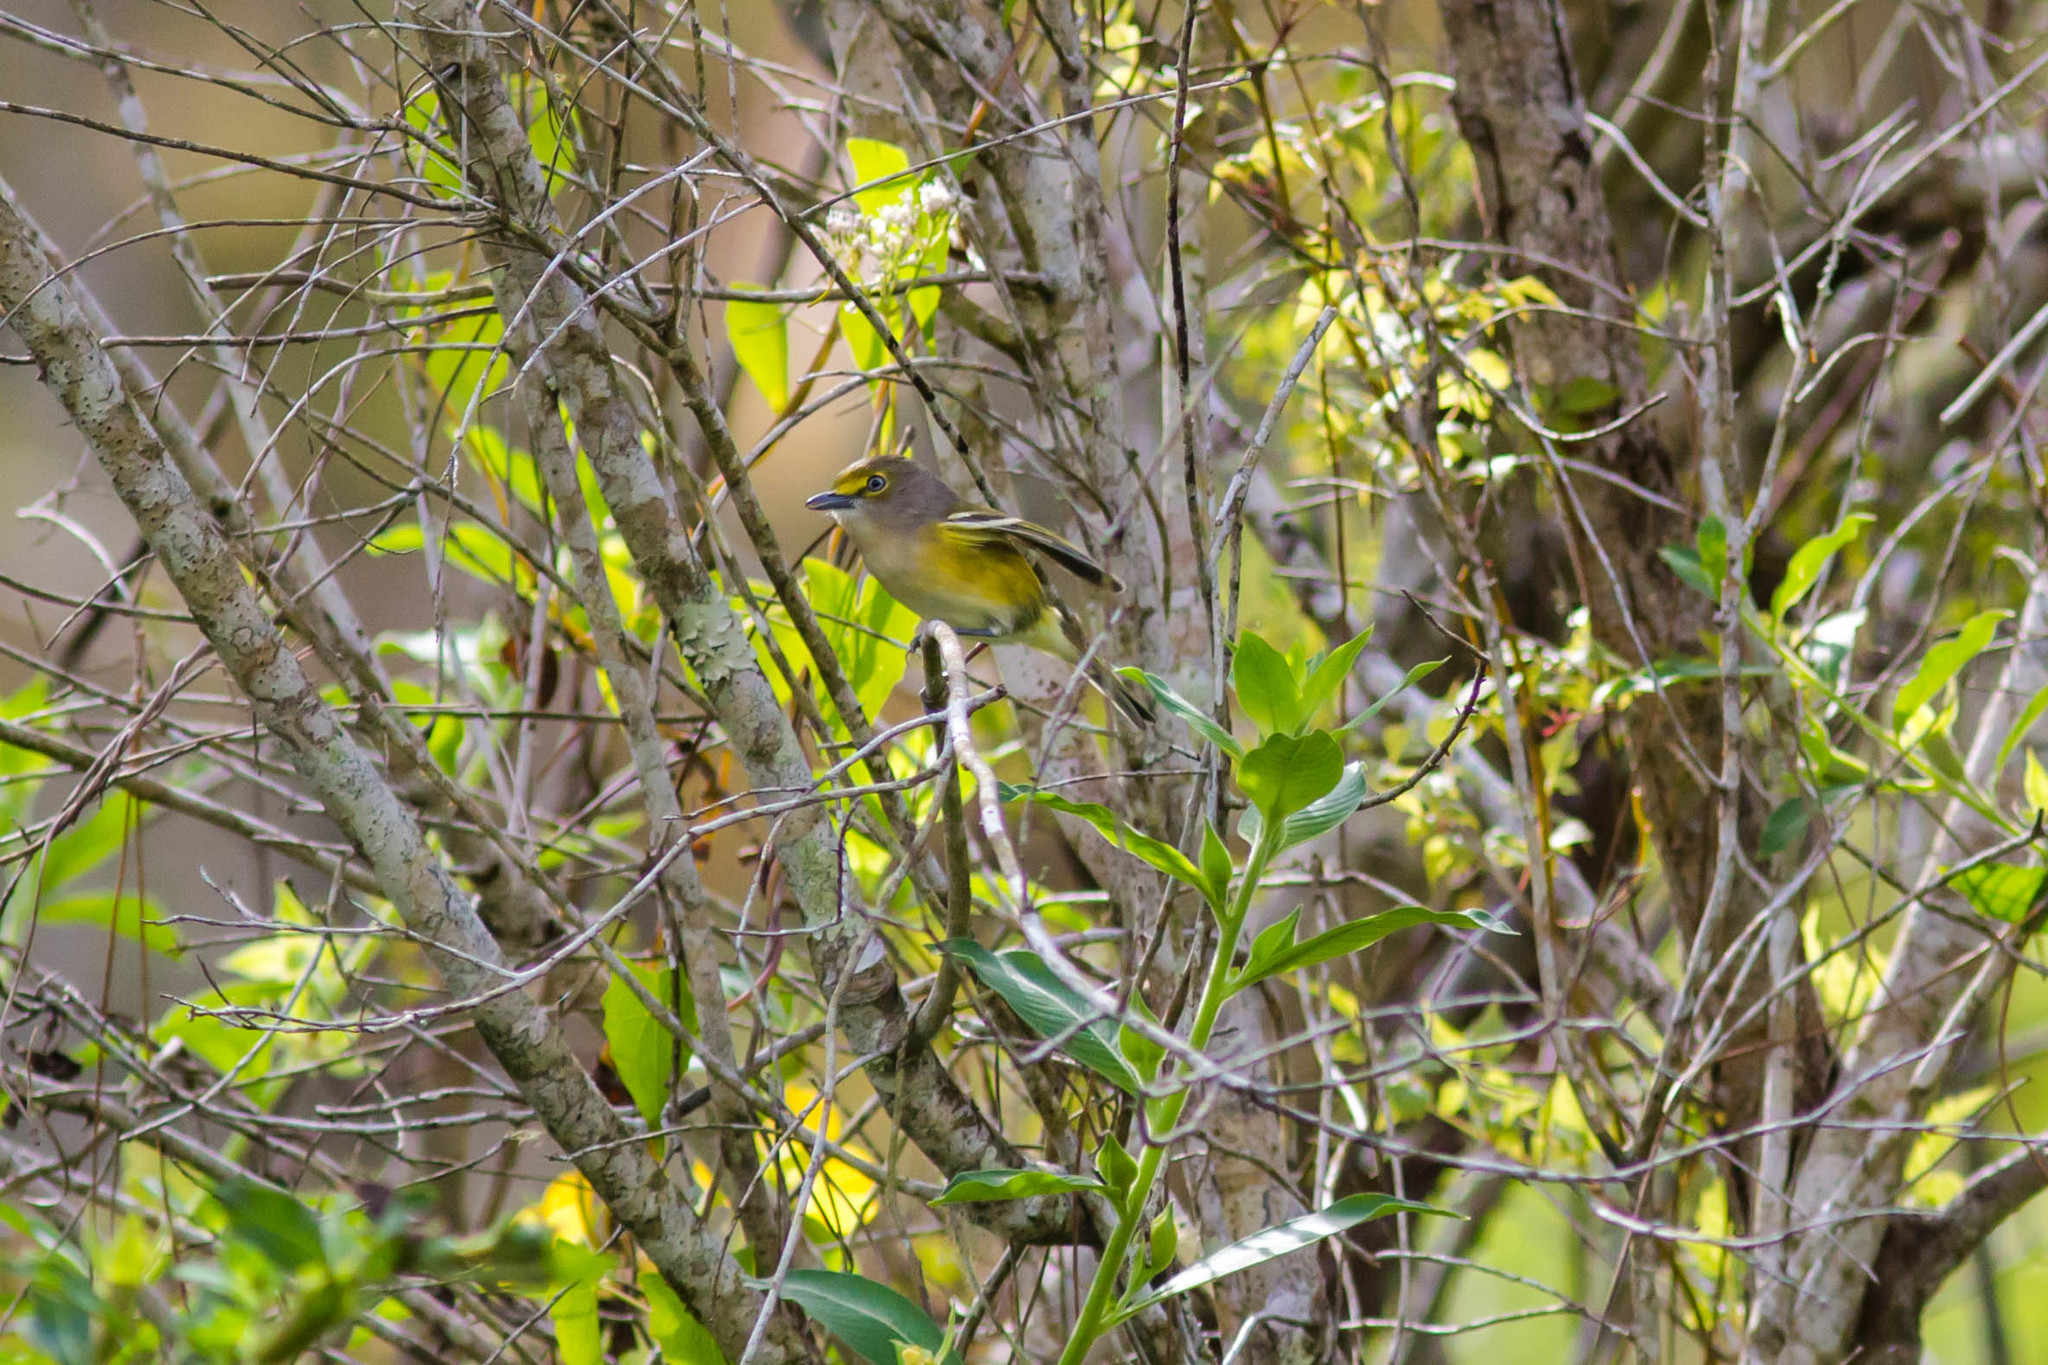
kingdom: Animalia
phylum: Chordata
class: Aves
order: Passeriformes
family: Vireonidae
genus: Vireo
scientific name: Vireo griseus
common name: White-eyed vireo
